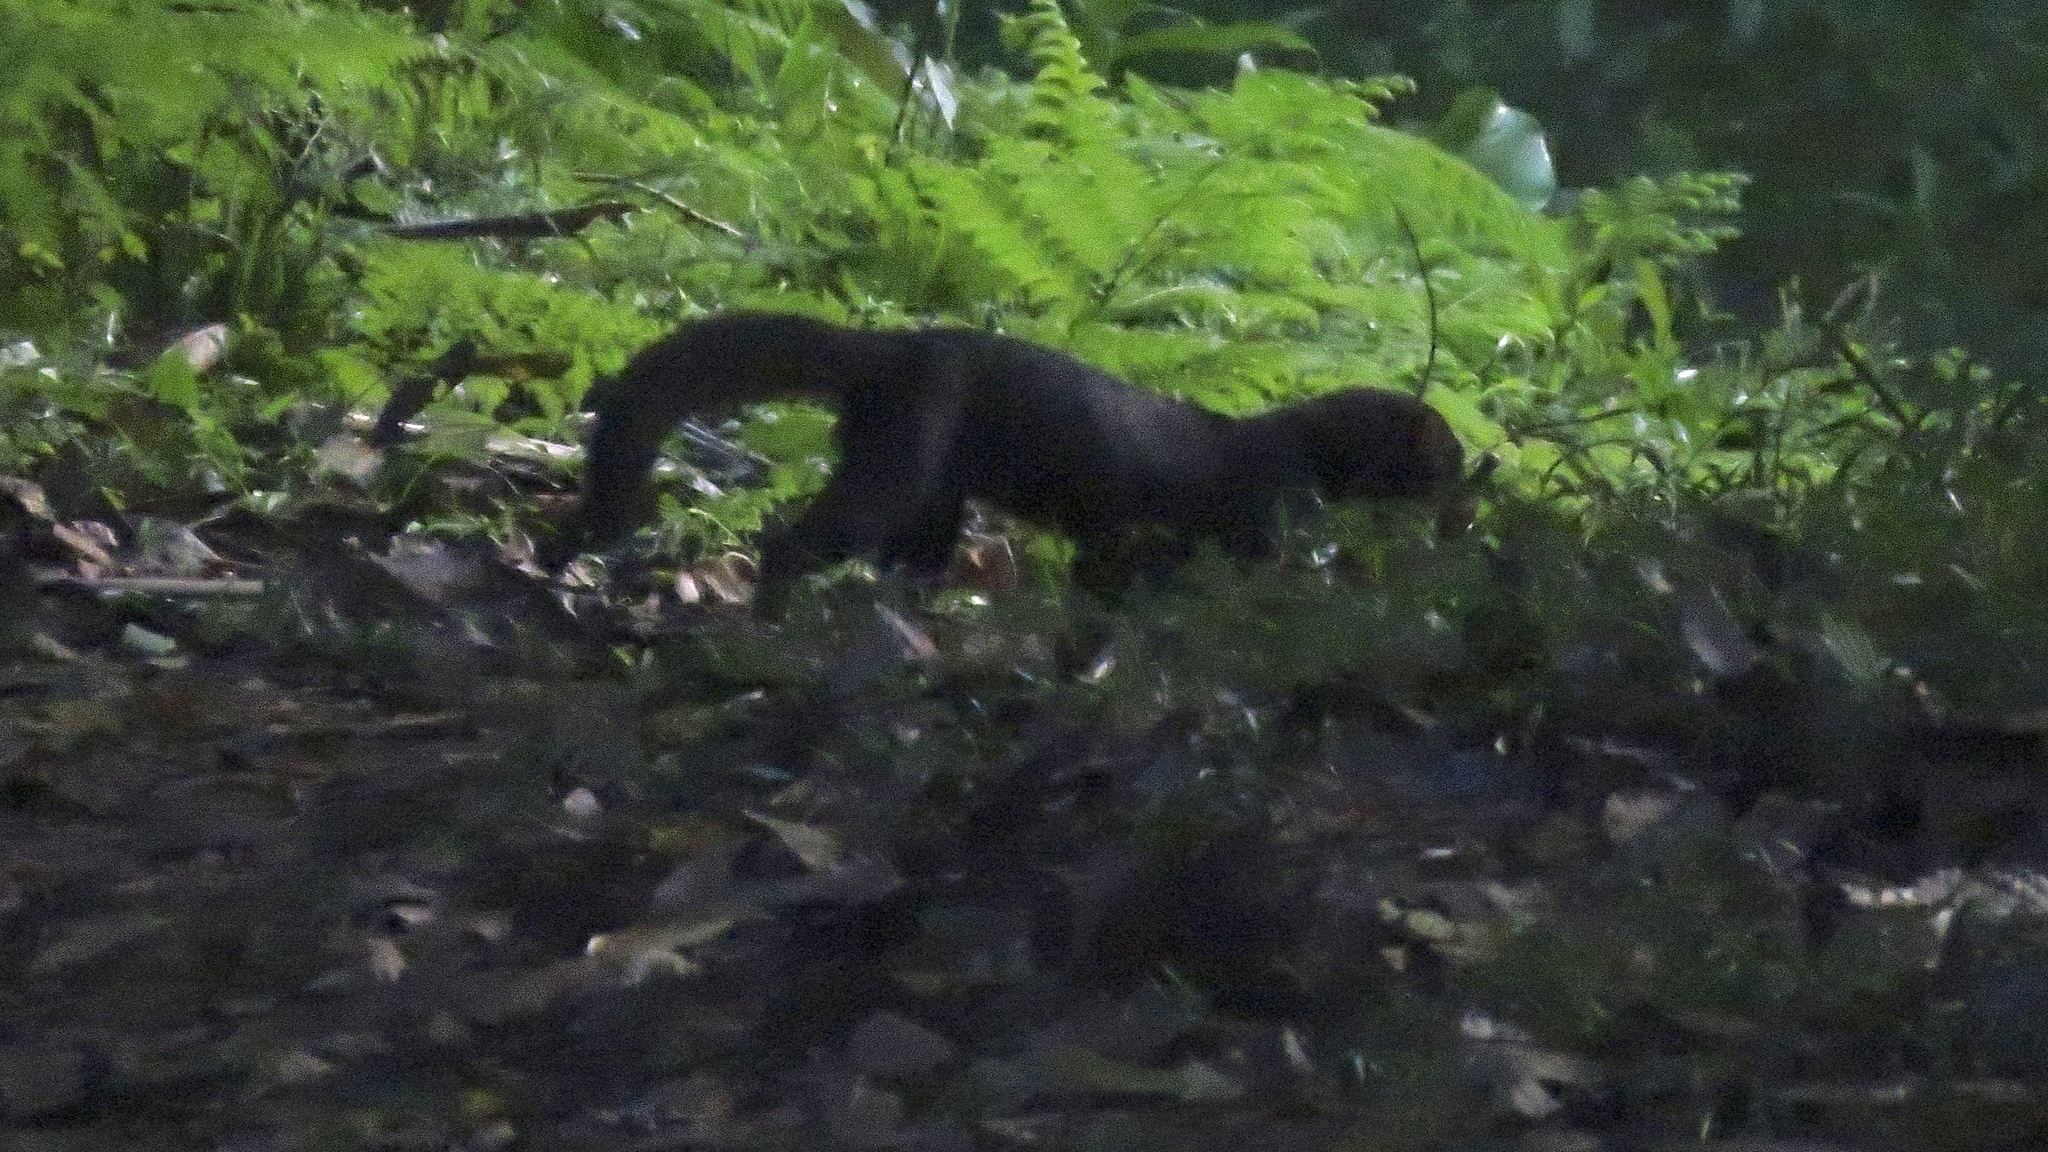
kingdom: Animalia
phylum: Chordata
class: Mammalia
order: Carnivora
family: Mustelidae
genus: Eira
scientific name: Eira barbara
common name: Tayra
